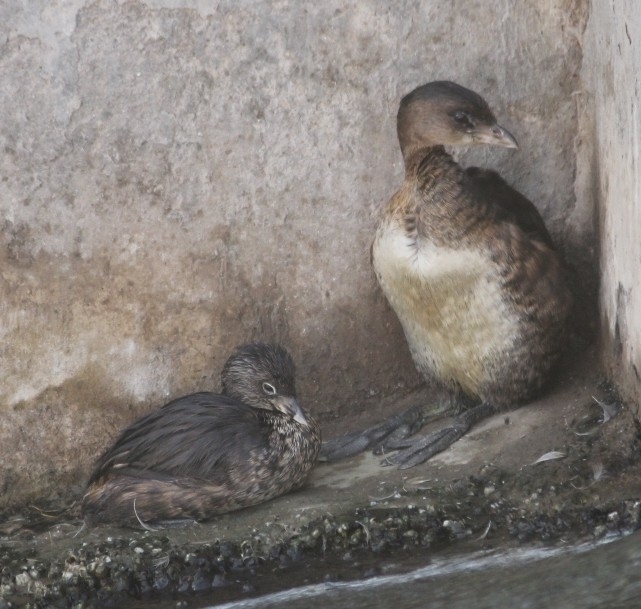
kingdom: Animalia
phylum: Chordata
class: Aves
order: Podicipediformes
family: Podicipedidae
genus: Podilymbus
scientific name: Podilymbus podiceps
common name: Pied-billed grebe
